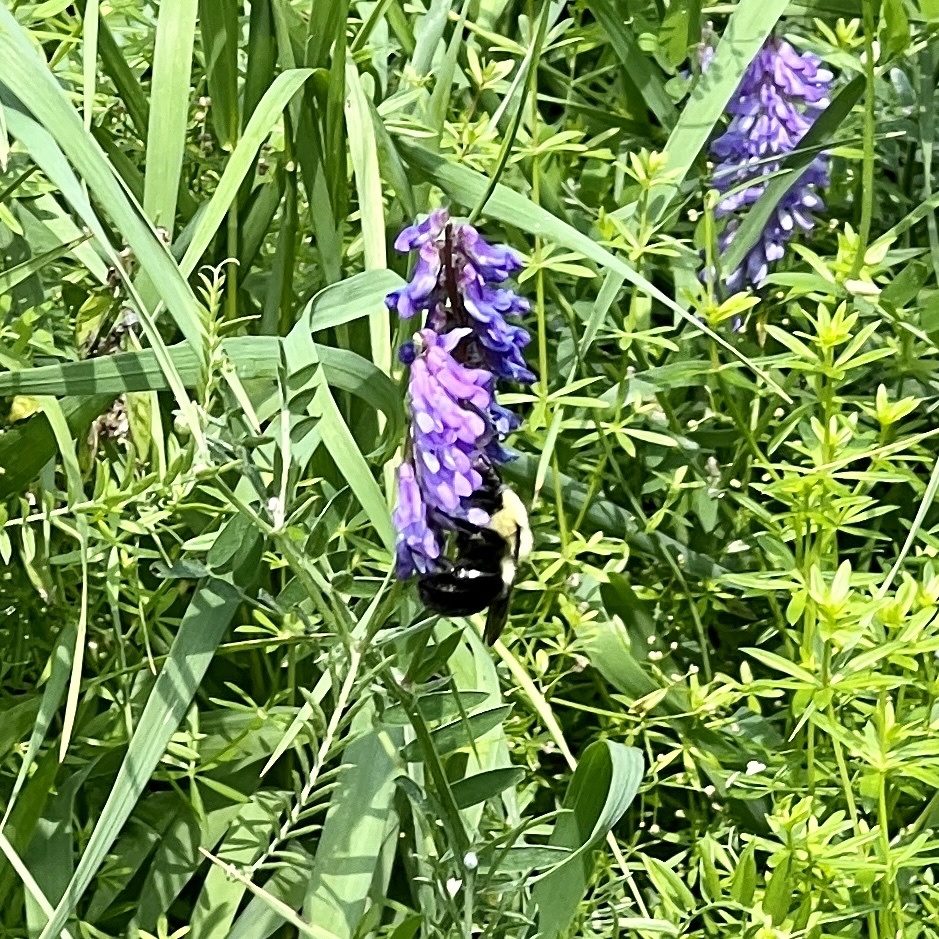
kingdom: Animalia
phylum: Arthropoda
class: Insecta
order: Hymenoptera
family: Apidae
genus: Bombus
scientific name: Bombus
